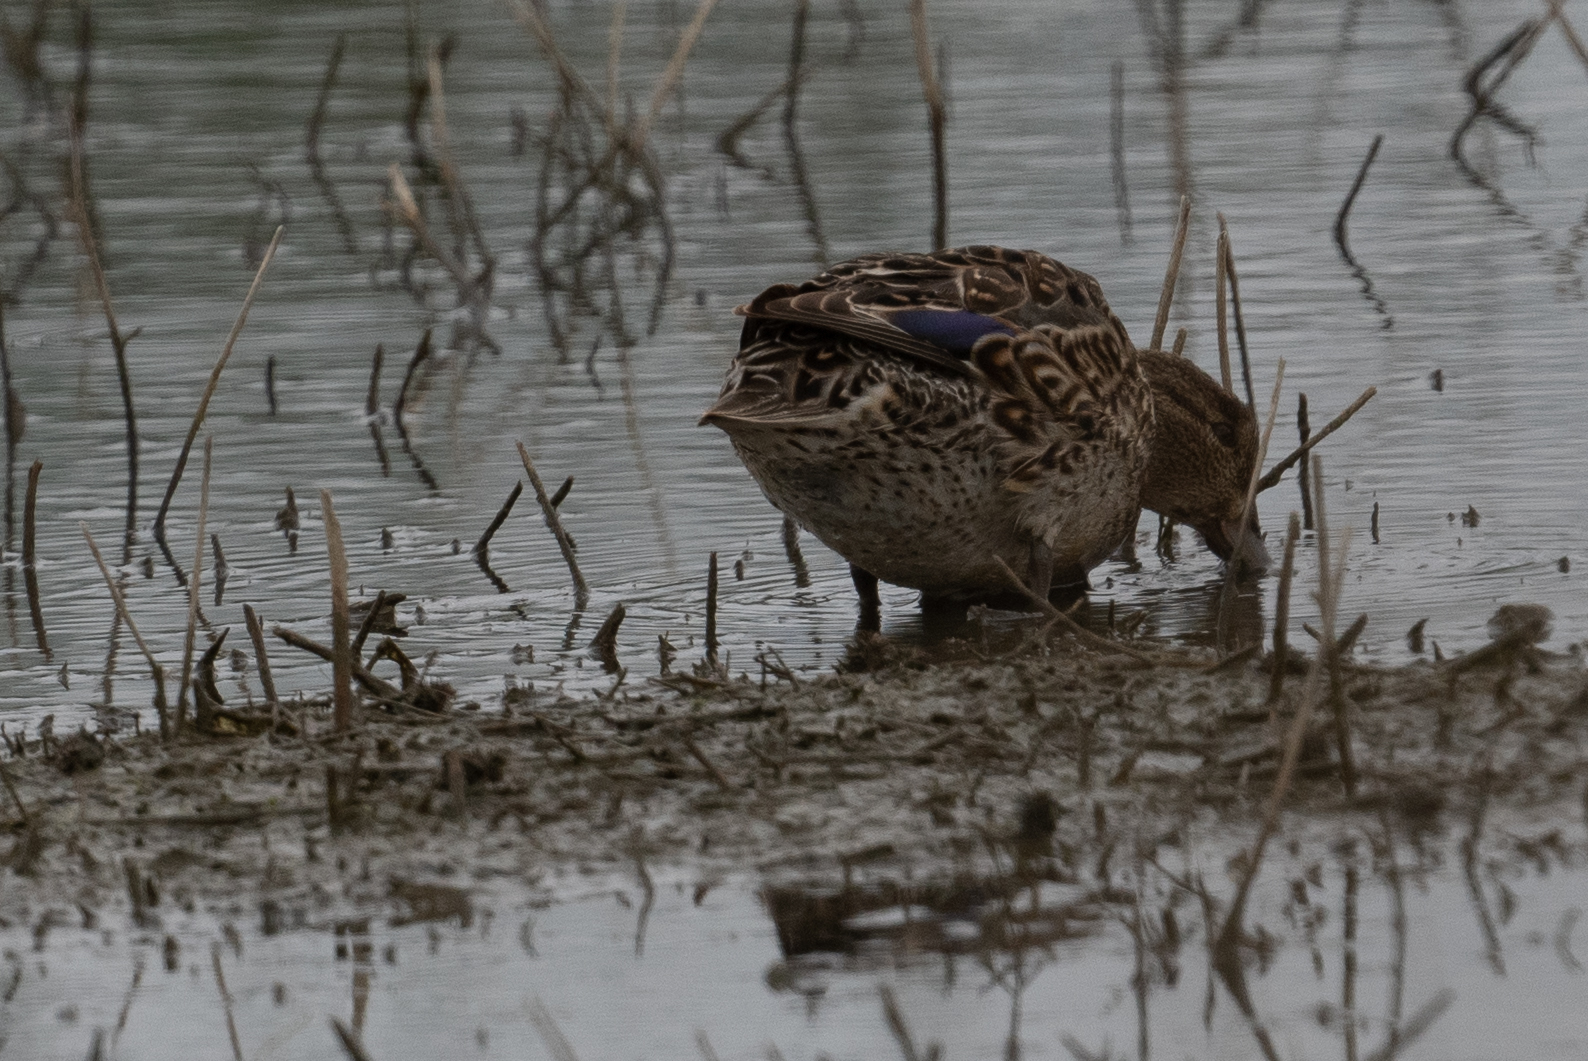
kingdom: Animalia
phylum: Chordata
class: Aves
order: Anseriformes
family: Anatidae
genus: Anas
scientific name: Anas platyrhynchos
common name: Mallard
